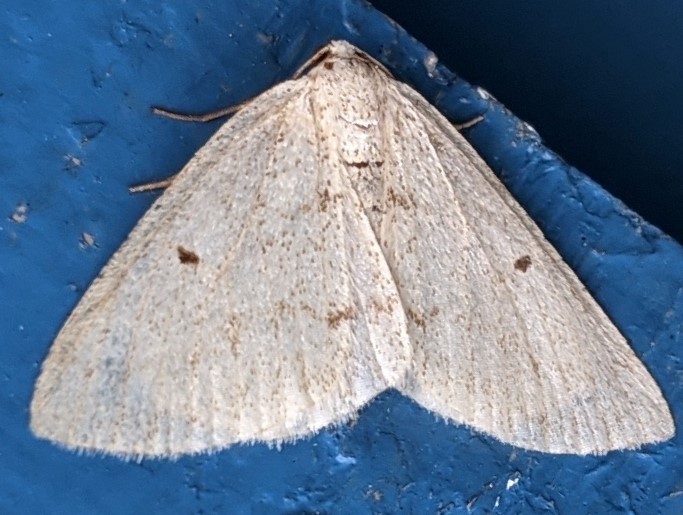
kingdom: Animalia
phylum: Arthropoda
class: Insecta
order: Lepidoptera
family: Geometridae
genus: Lomographa
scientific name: Lomographa glomeraria
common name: Gray spring moth
